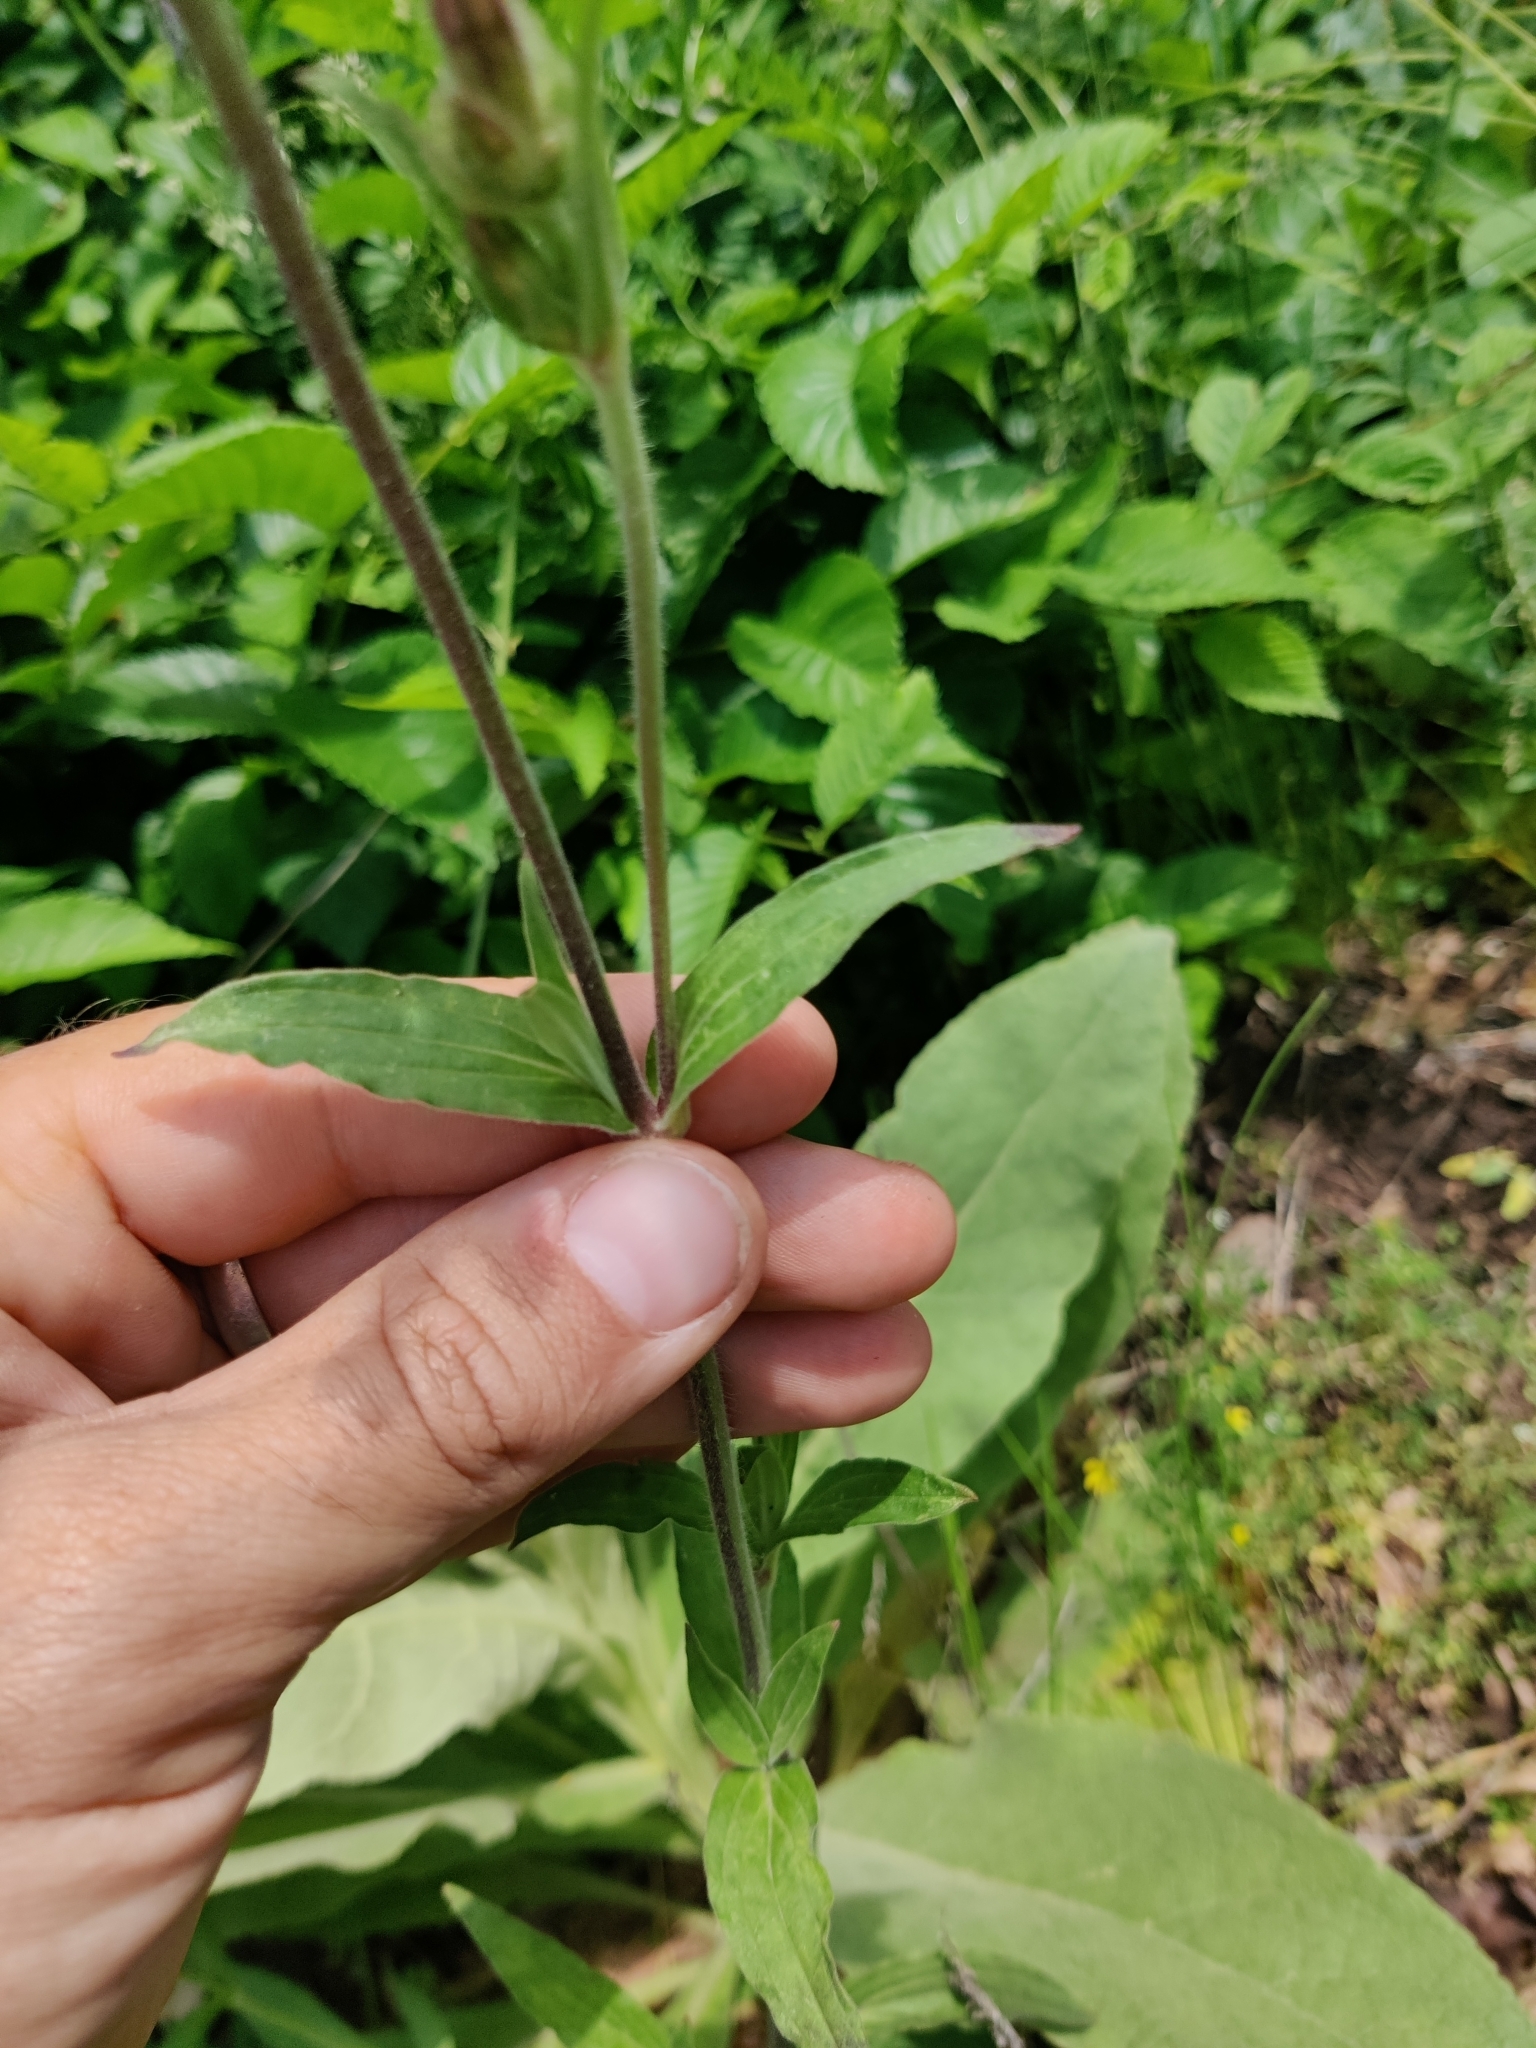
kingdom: Plantae
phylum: Tracheophyta
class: Magnoliopsida
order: Caryophyllales
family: Caryophyllaceae
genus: Silene
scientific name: Silene latifolia
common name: White campion
